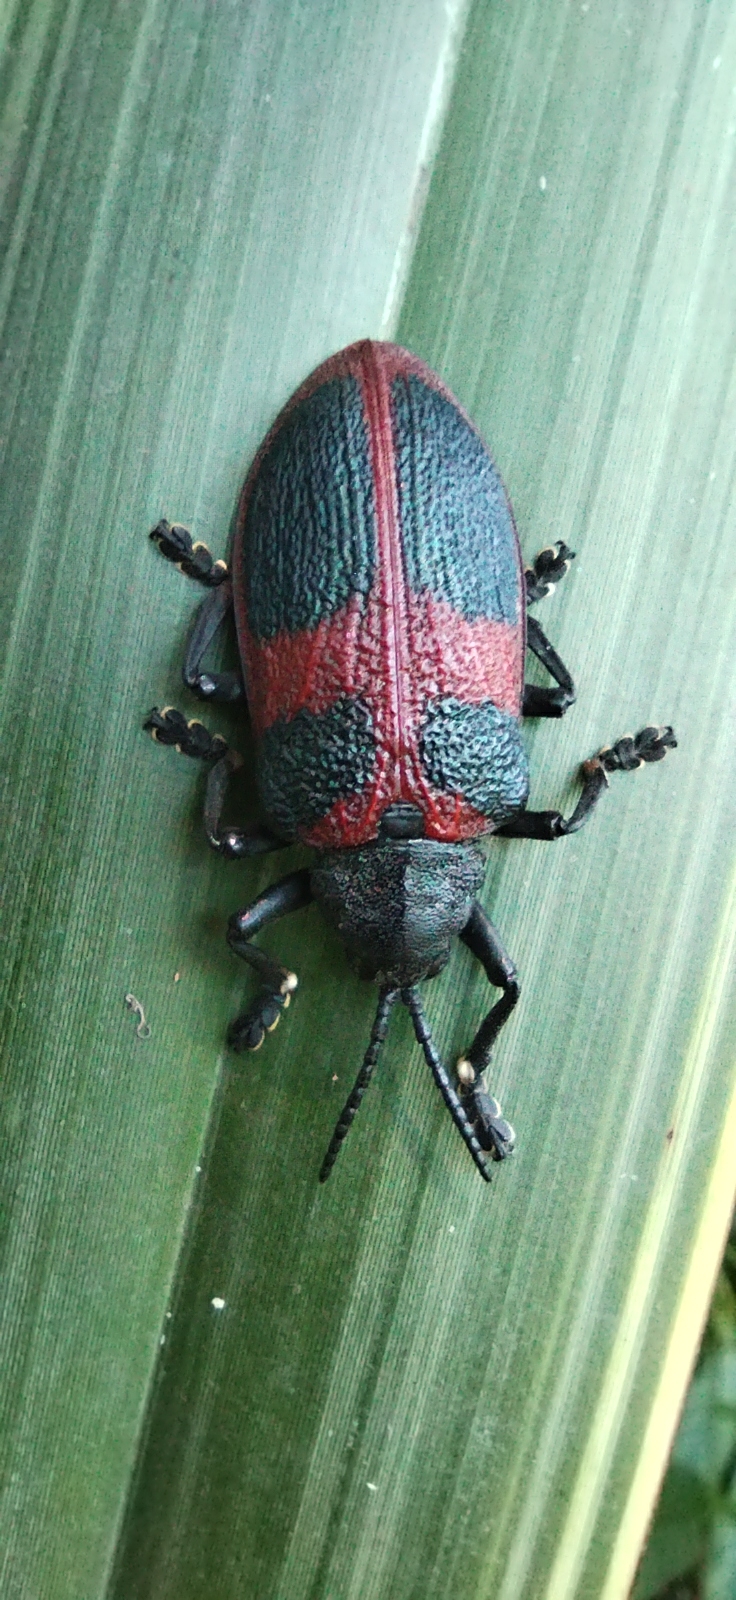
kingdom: Animalia
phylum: Arthropoda
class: Insecta
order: Coleoptera
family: Chrysomelidae
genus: Coraliomela
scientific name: Coraliomela quadrimaculata
